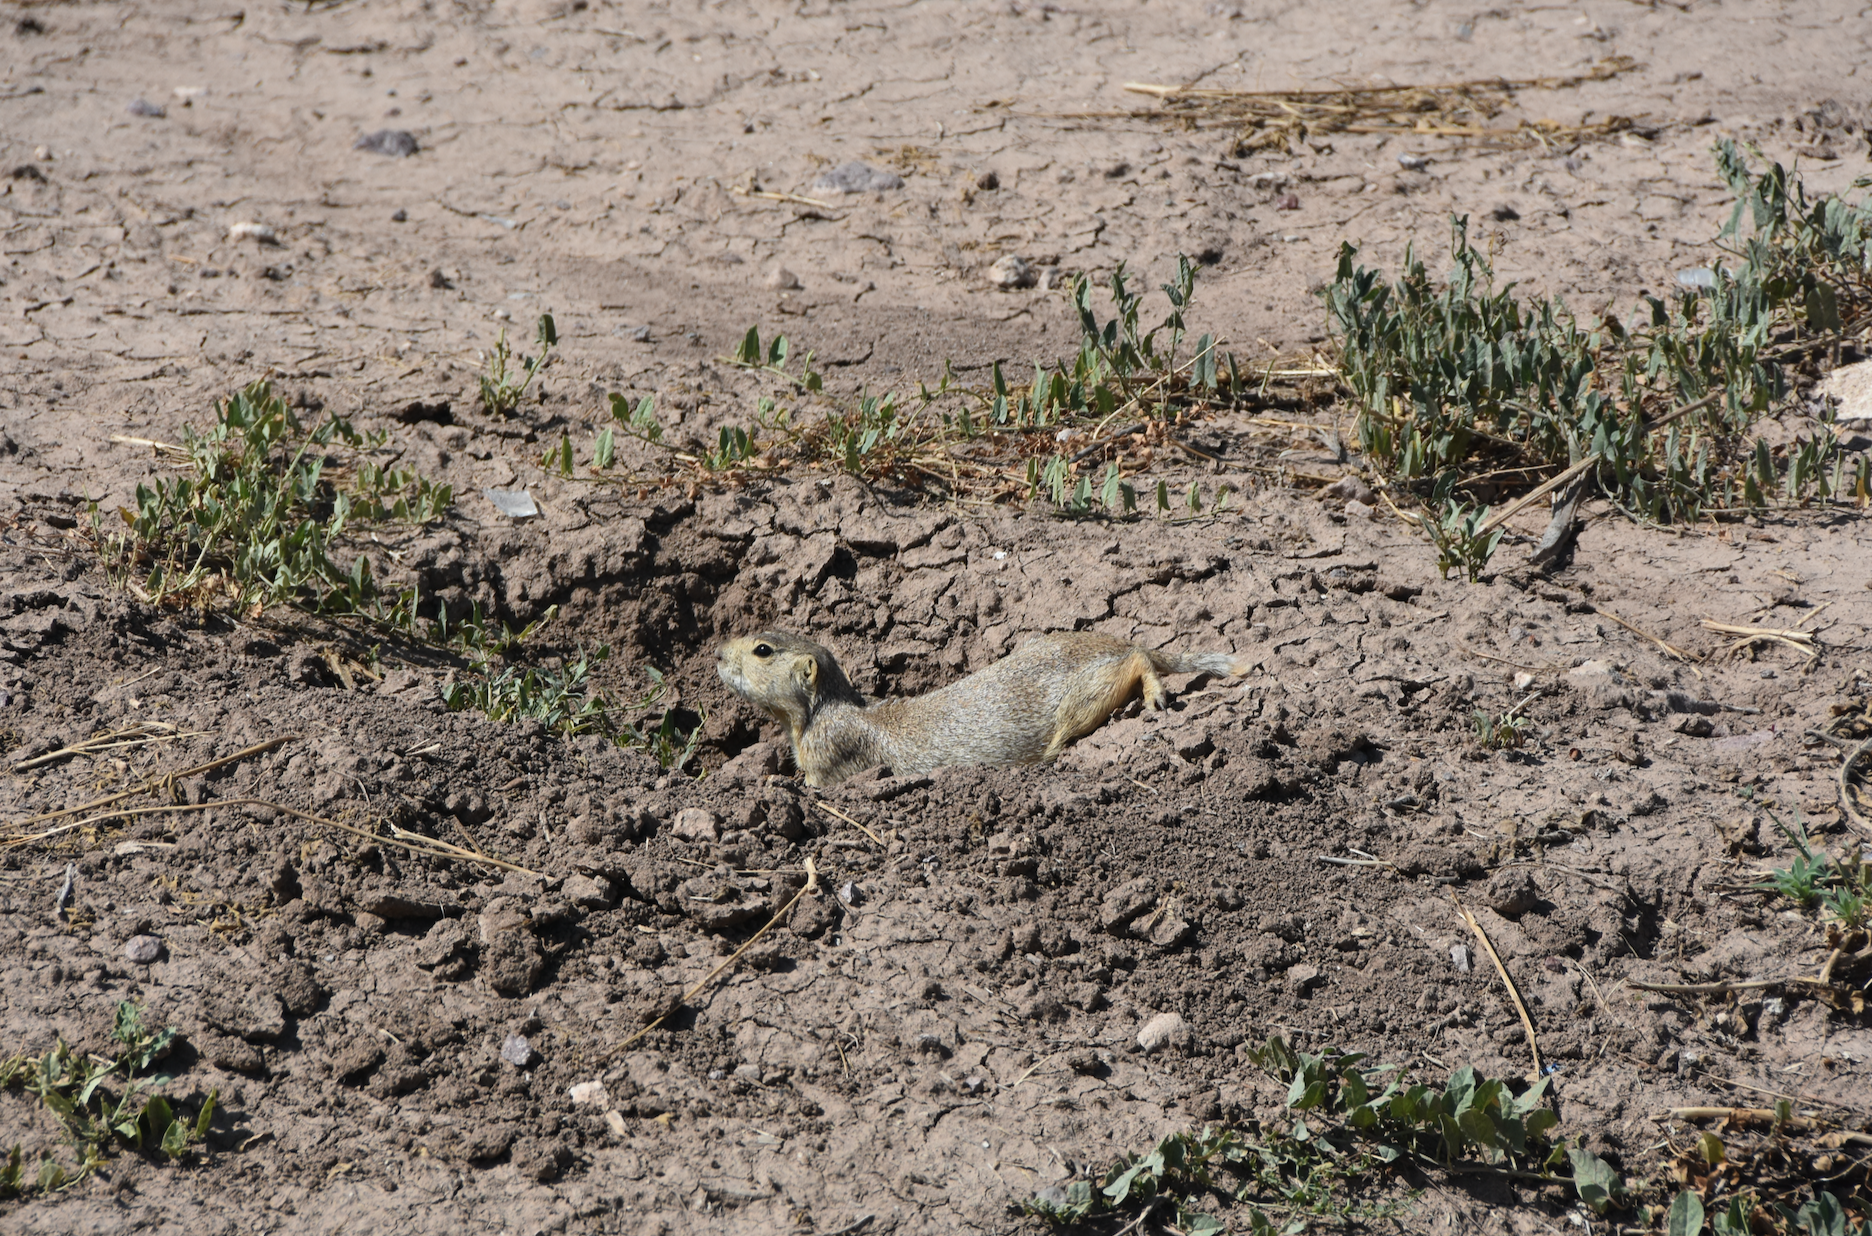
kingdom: Animalia
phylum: Chordata
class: Mammalia
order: Rodentia
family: Sciuridae
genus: Cynomys
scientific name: Cynomys gunnisoni
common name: Gunnison's prairie dog
